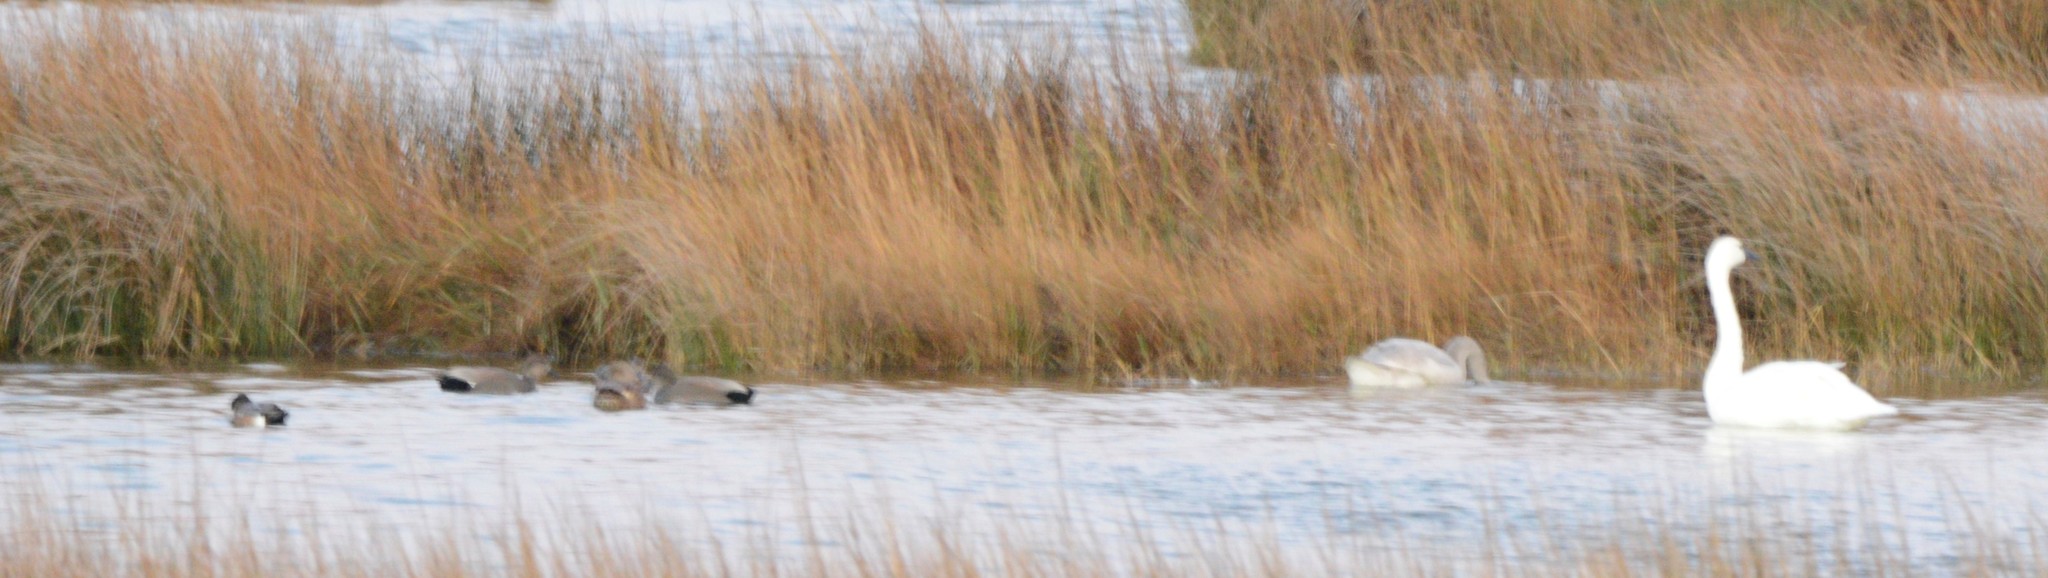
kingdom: Animalia
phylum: Chordata
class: Aves
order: Anseriformes
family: Anatidae
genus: Cygnus
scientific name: Cygnus columbianus
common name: Tundra swan
